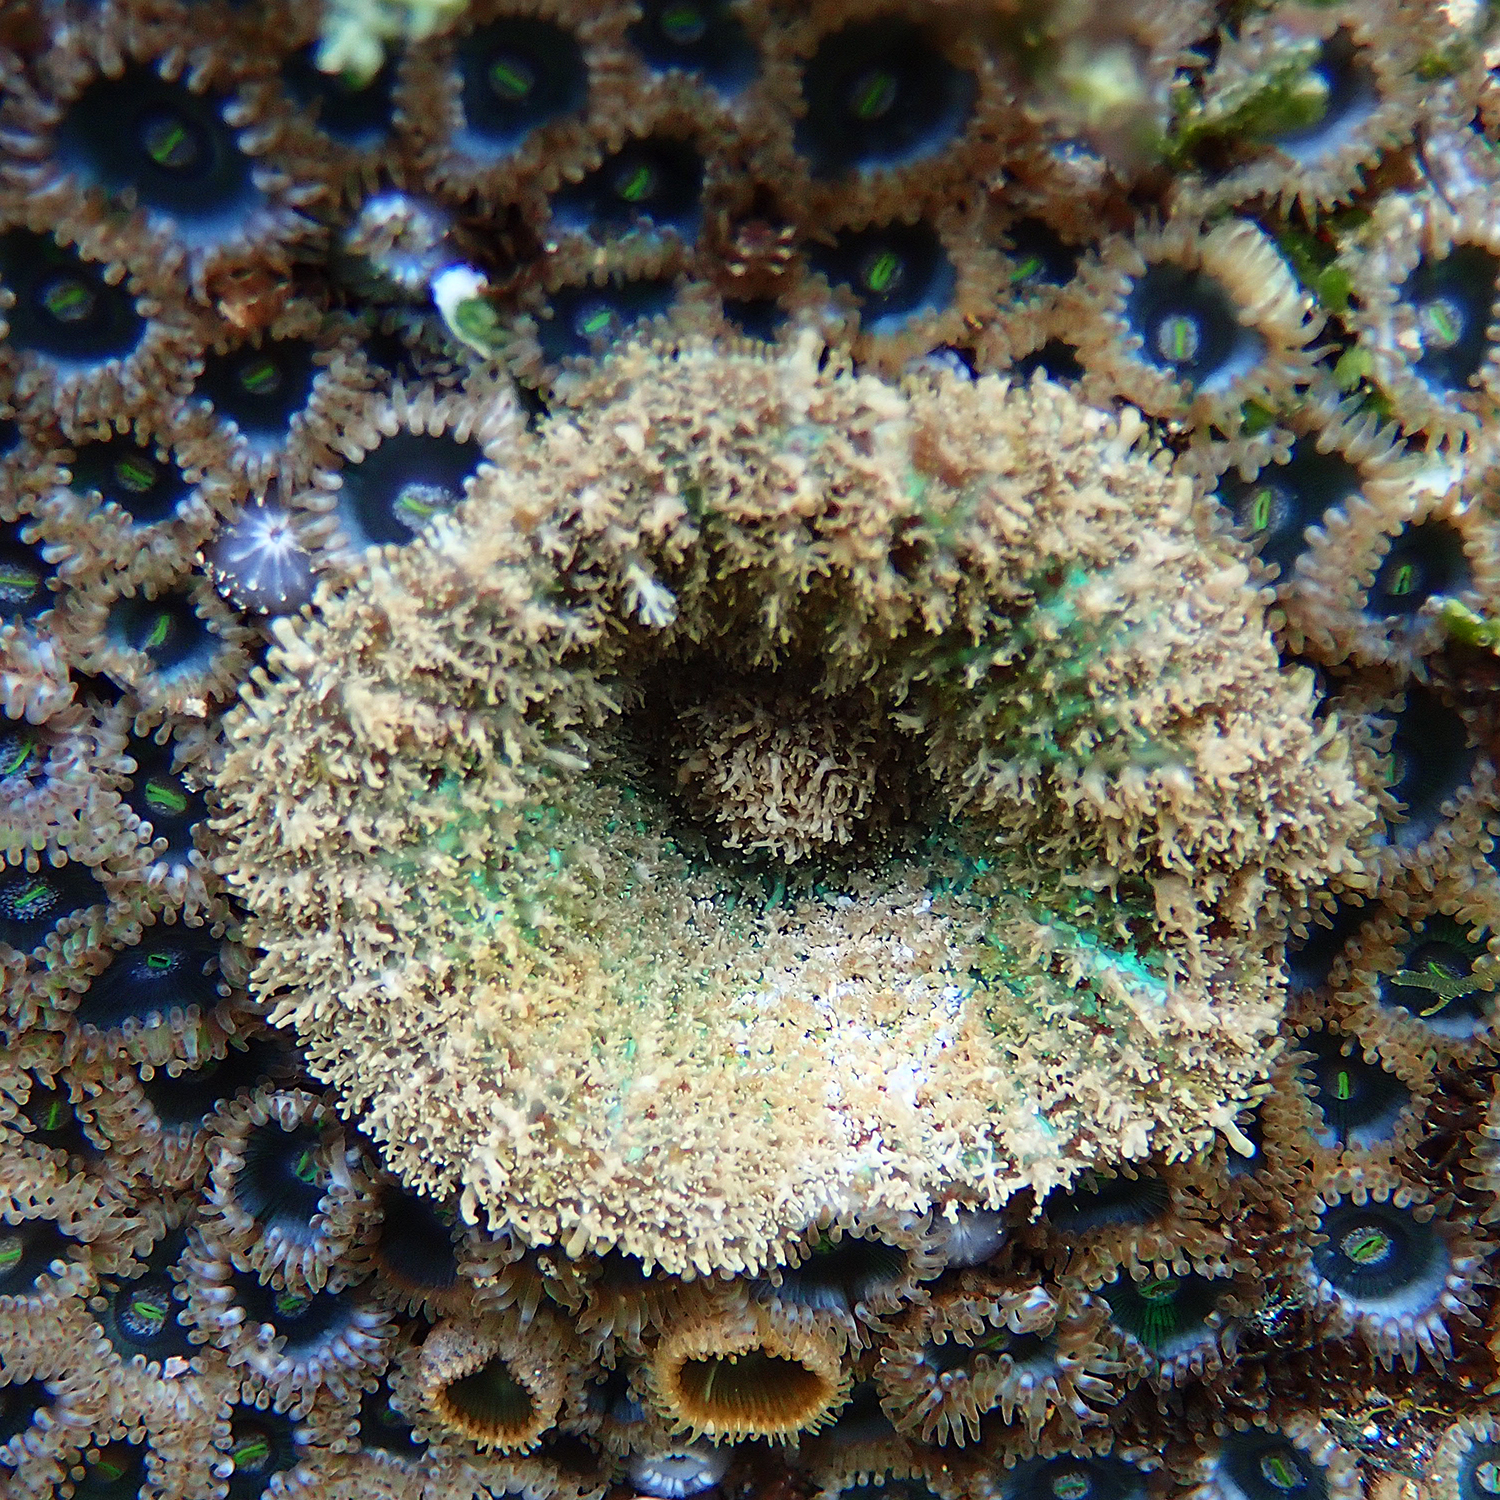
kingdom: Animalia
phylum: Cnidaria
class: Anthozoa
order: Corallimorpharia
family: Discosomidae
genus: Rhodactis
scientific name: Rhodactis bryoides
